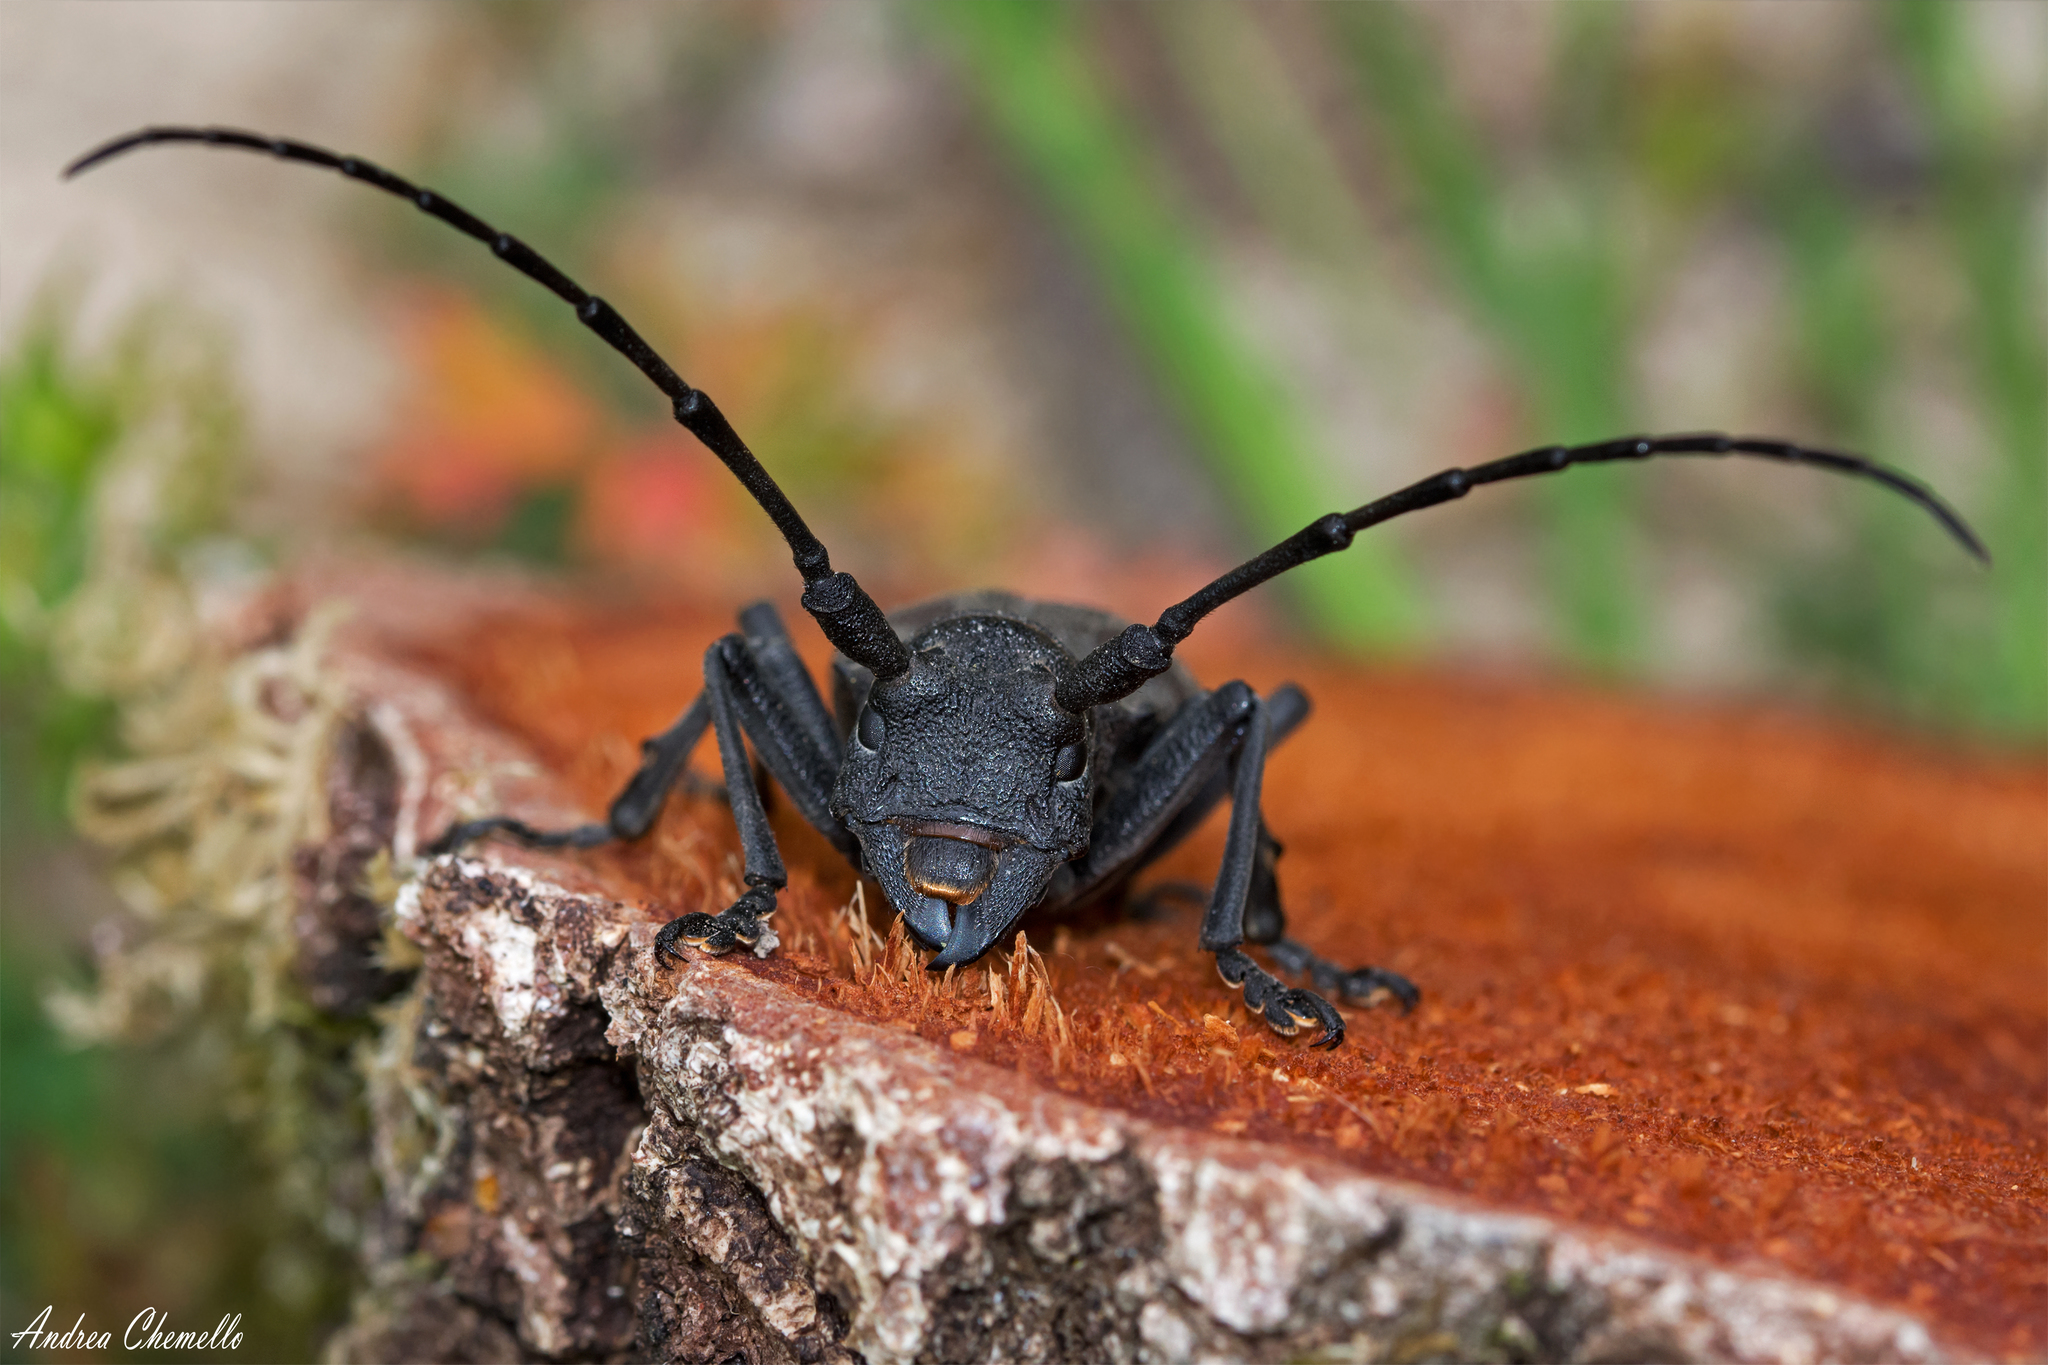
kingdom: Animalia
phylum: Arthropoda
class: Insecta
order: Coleoptera
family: Cerambycidae
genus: Morimus
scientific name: Morimus asper
